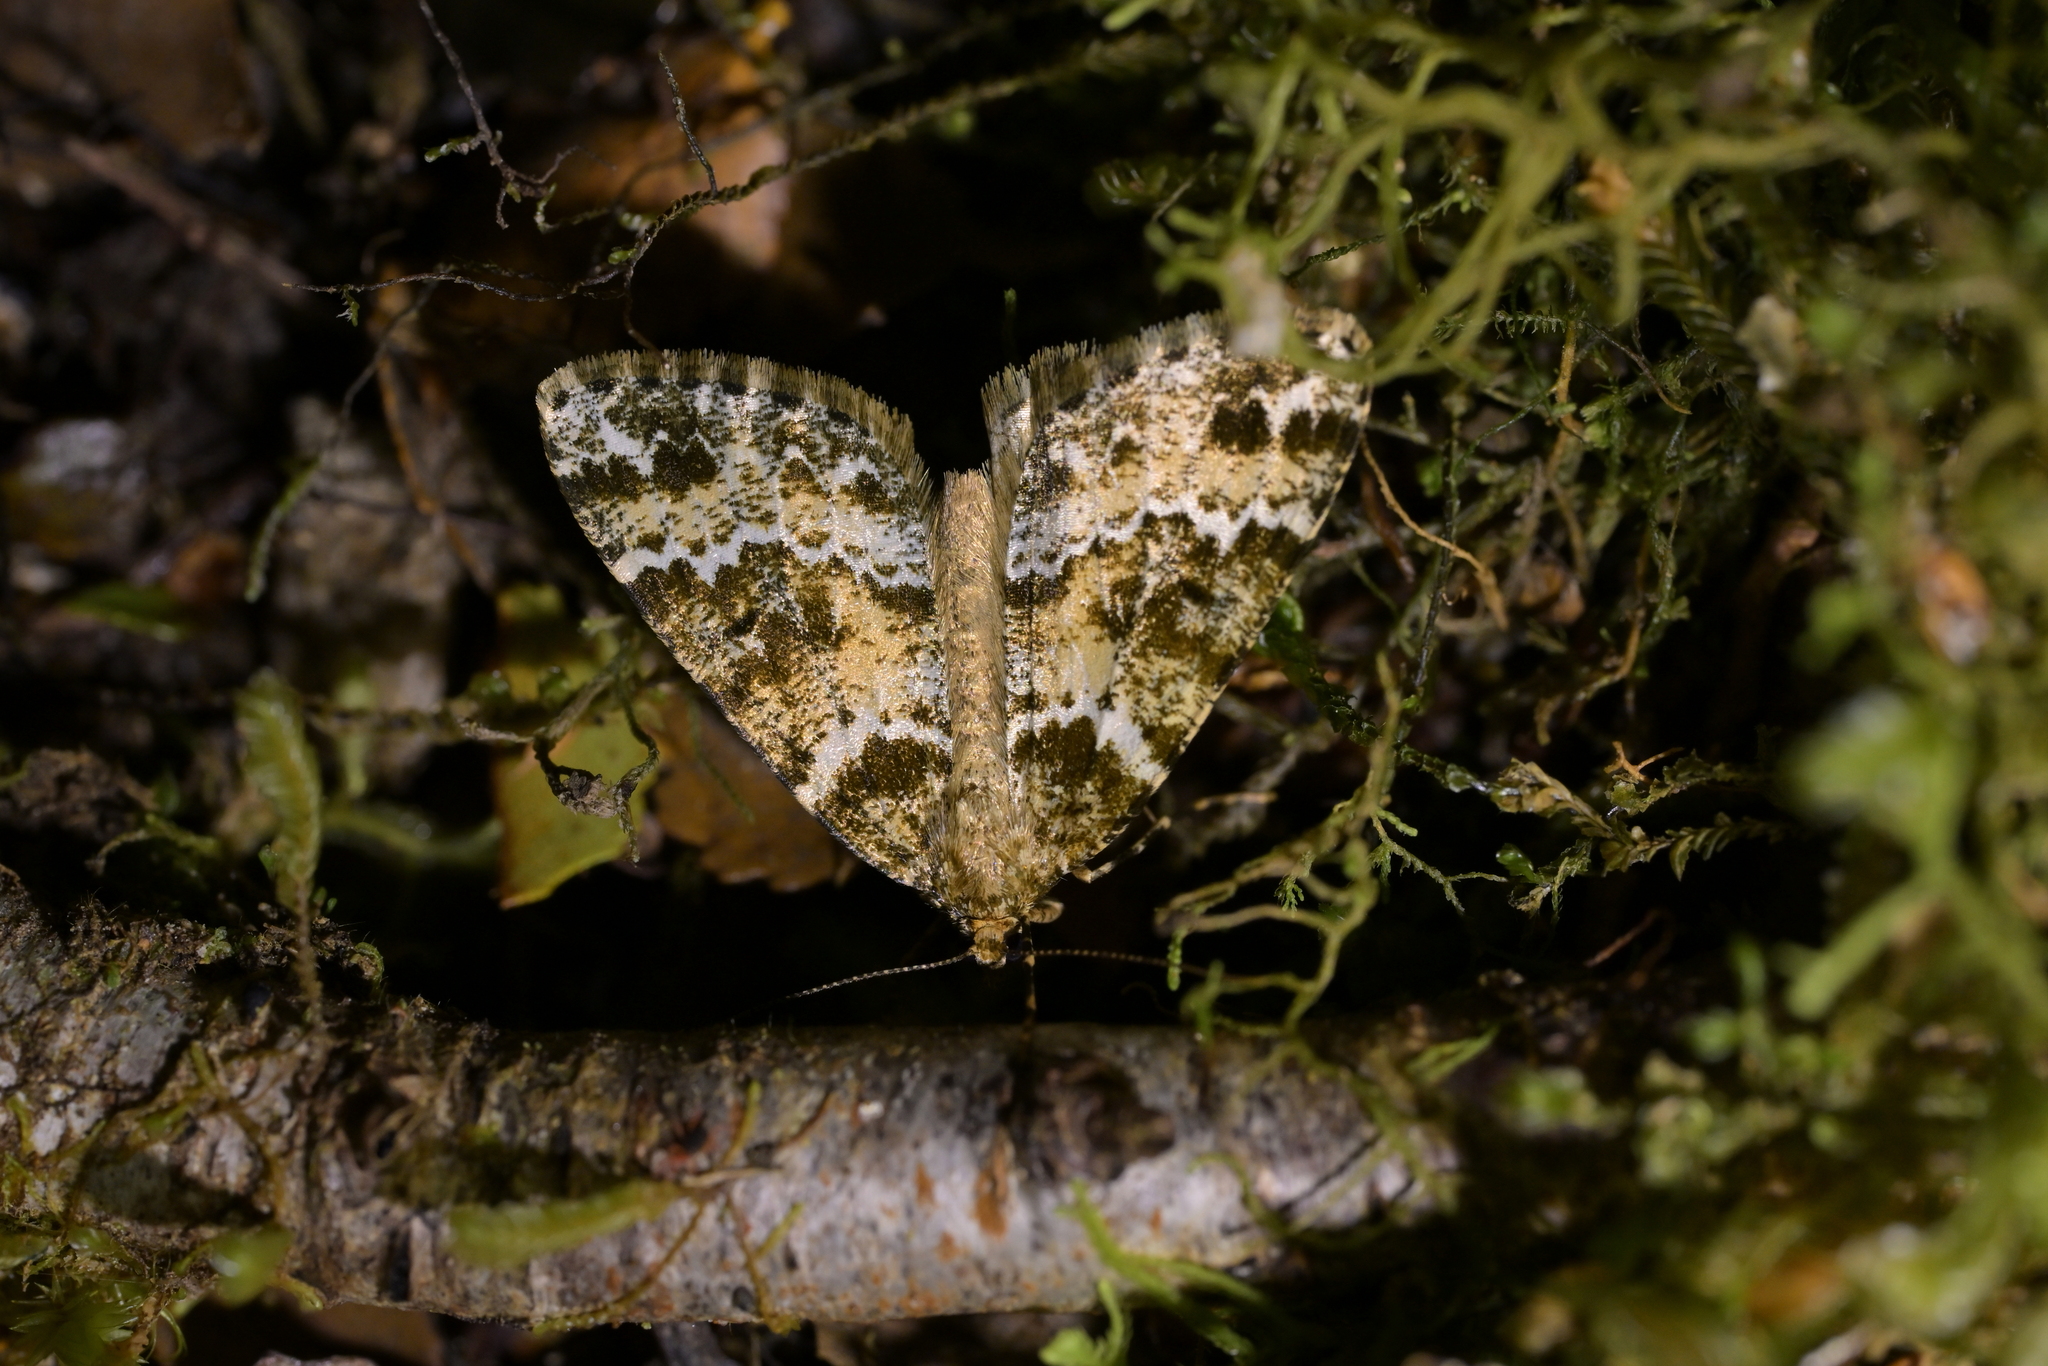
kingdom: Animalia
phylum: Arthropoda
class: Insecta
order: Lepidoptera
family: Geometridae
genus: Pseudocoremia
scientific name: Pseudocoremia productata
